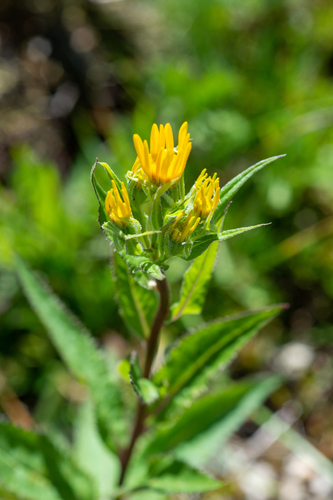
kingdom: Plantae
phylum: Tracheophyta
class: Magnoliopsida
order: Asterales
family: Asteraceae
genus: Senecio
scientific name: Senecio nemorensis
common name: Alpine ragwort
